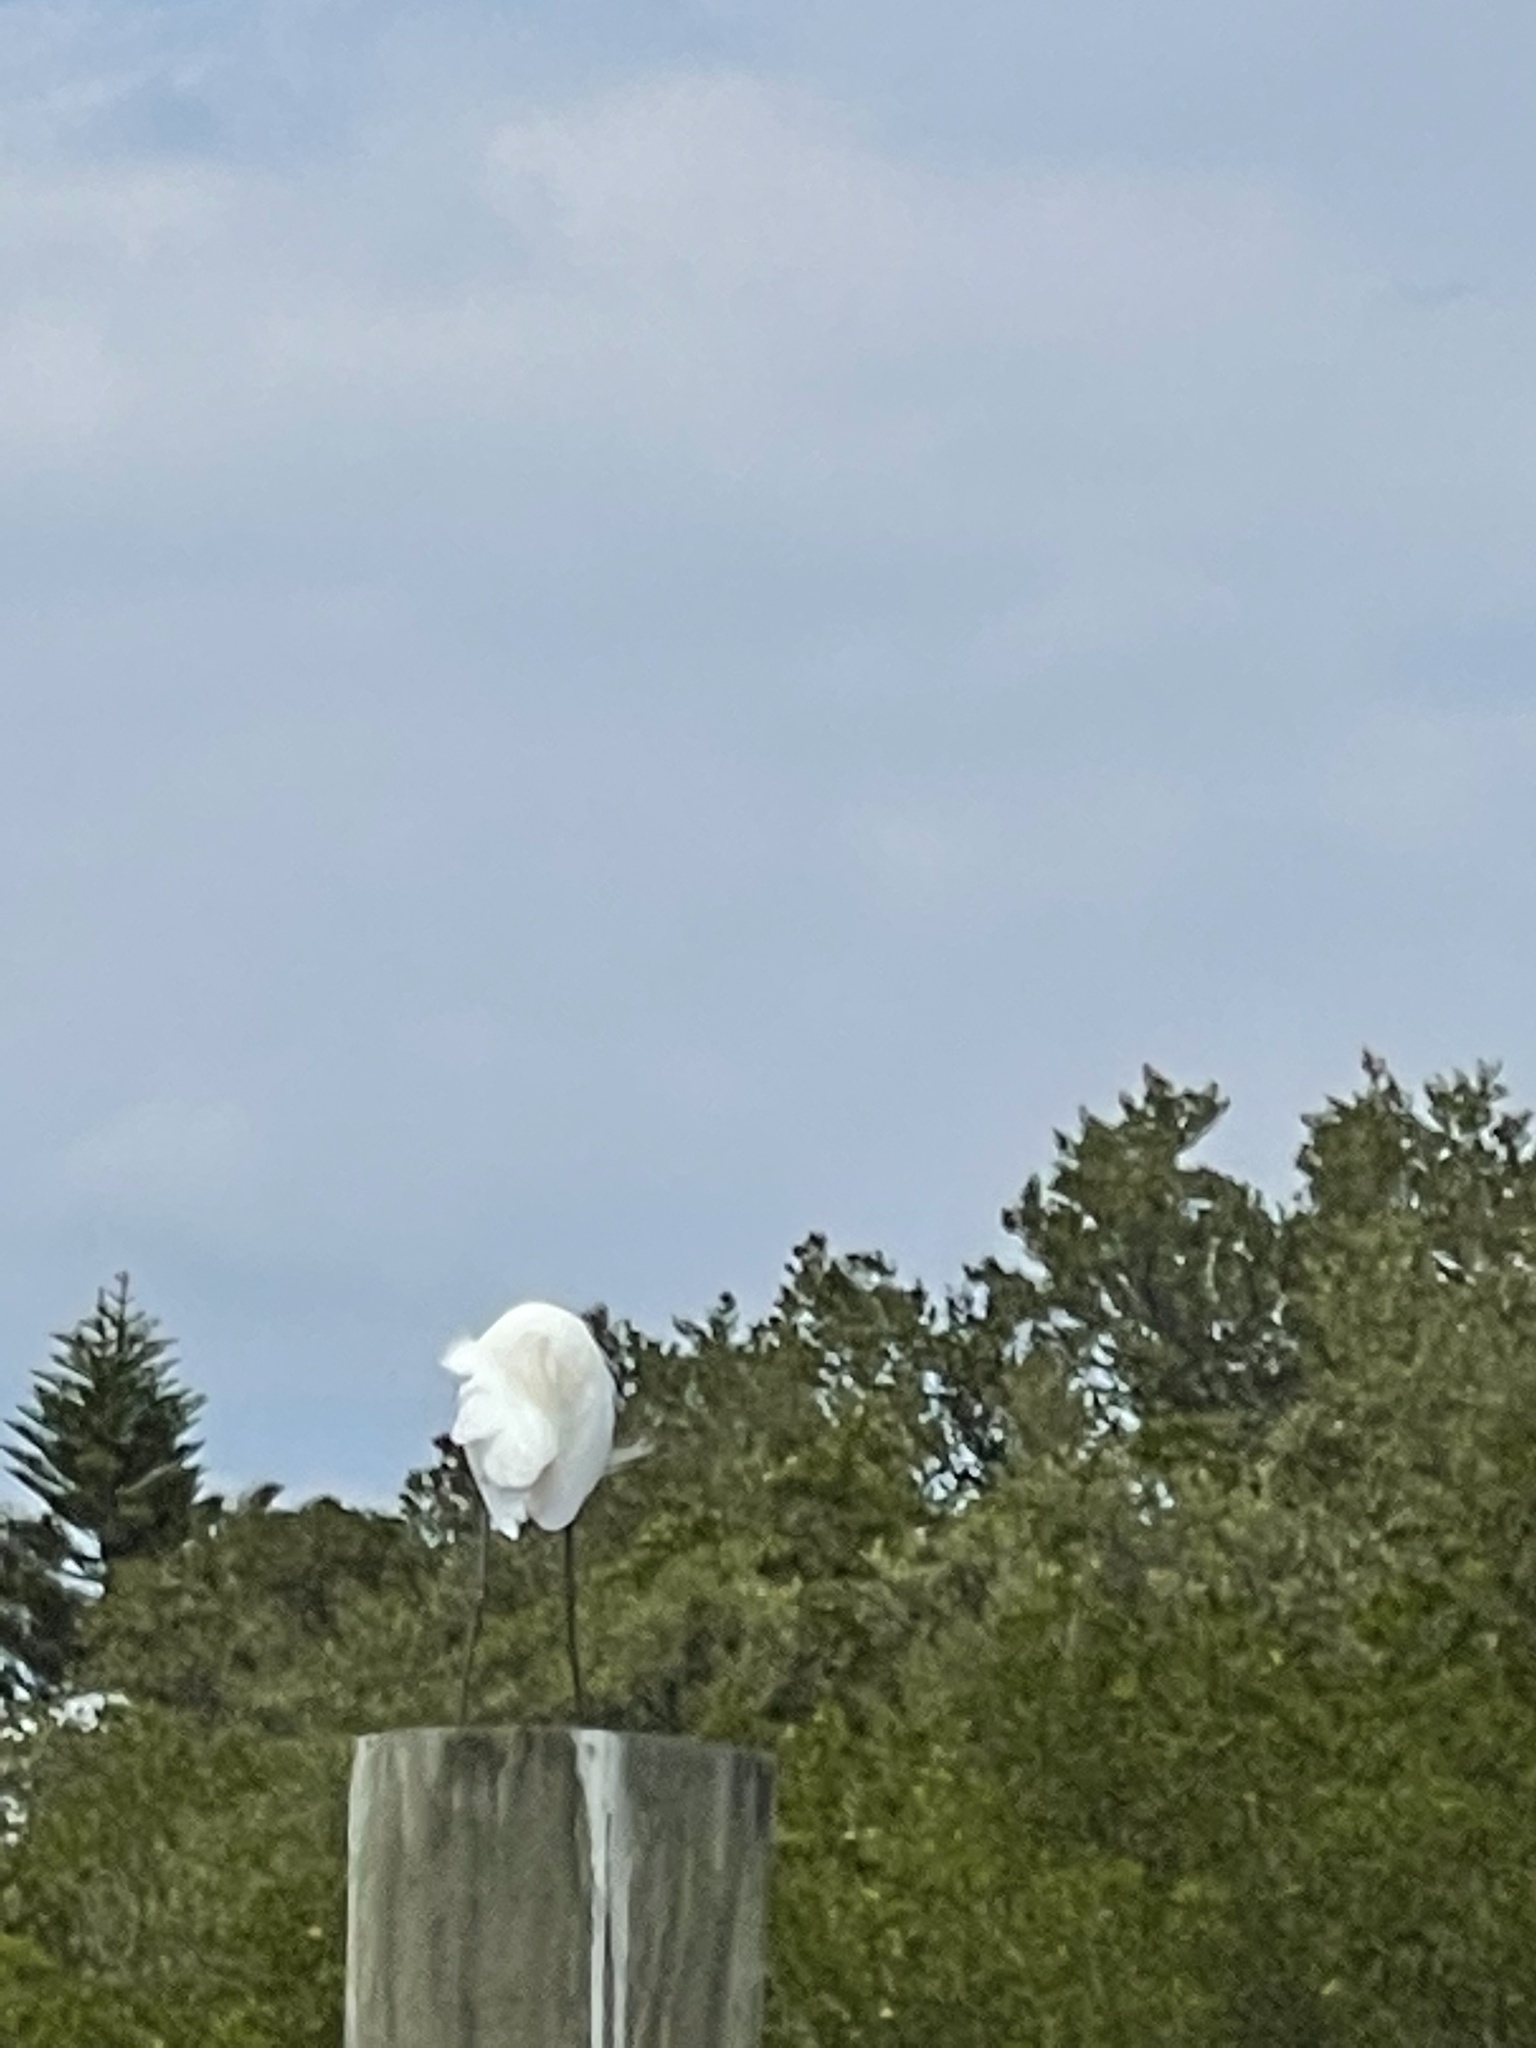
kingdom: Animalia
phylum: Chordata
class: Aves
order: Pelecaniformes
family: Ardeidae
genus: Egretta
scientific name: Egretta thula
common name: Snowy egret
